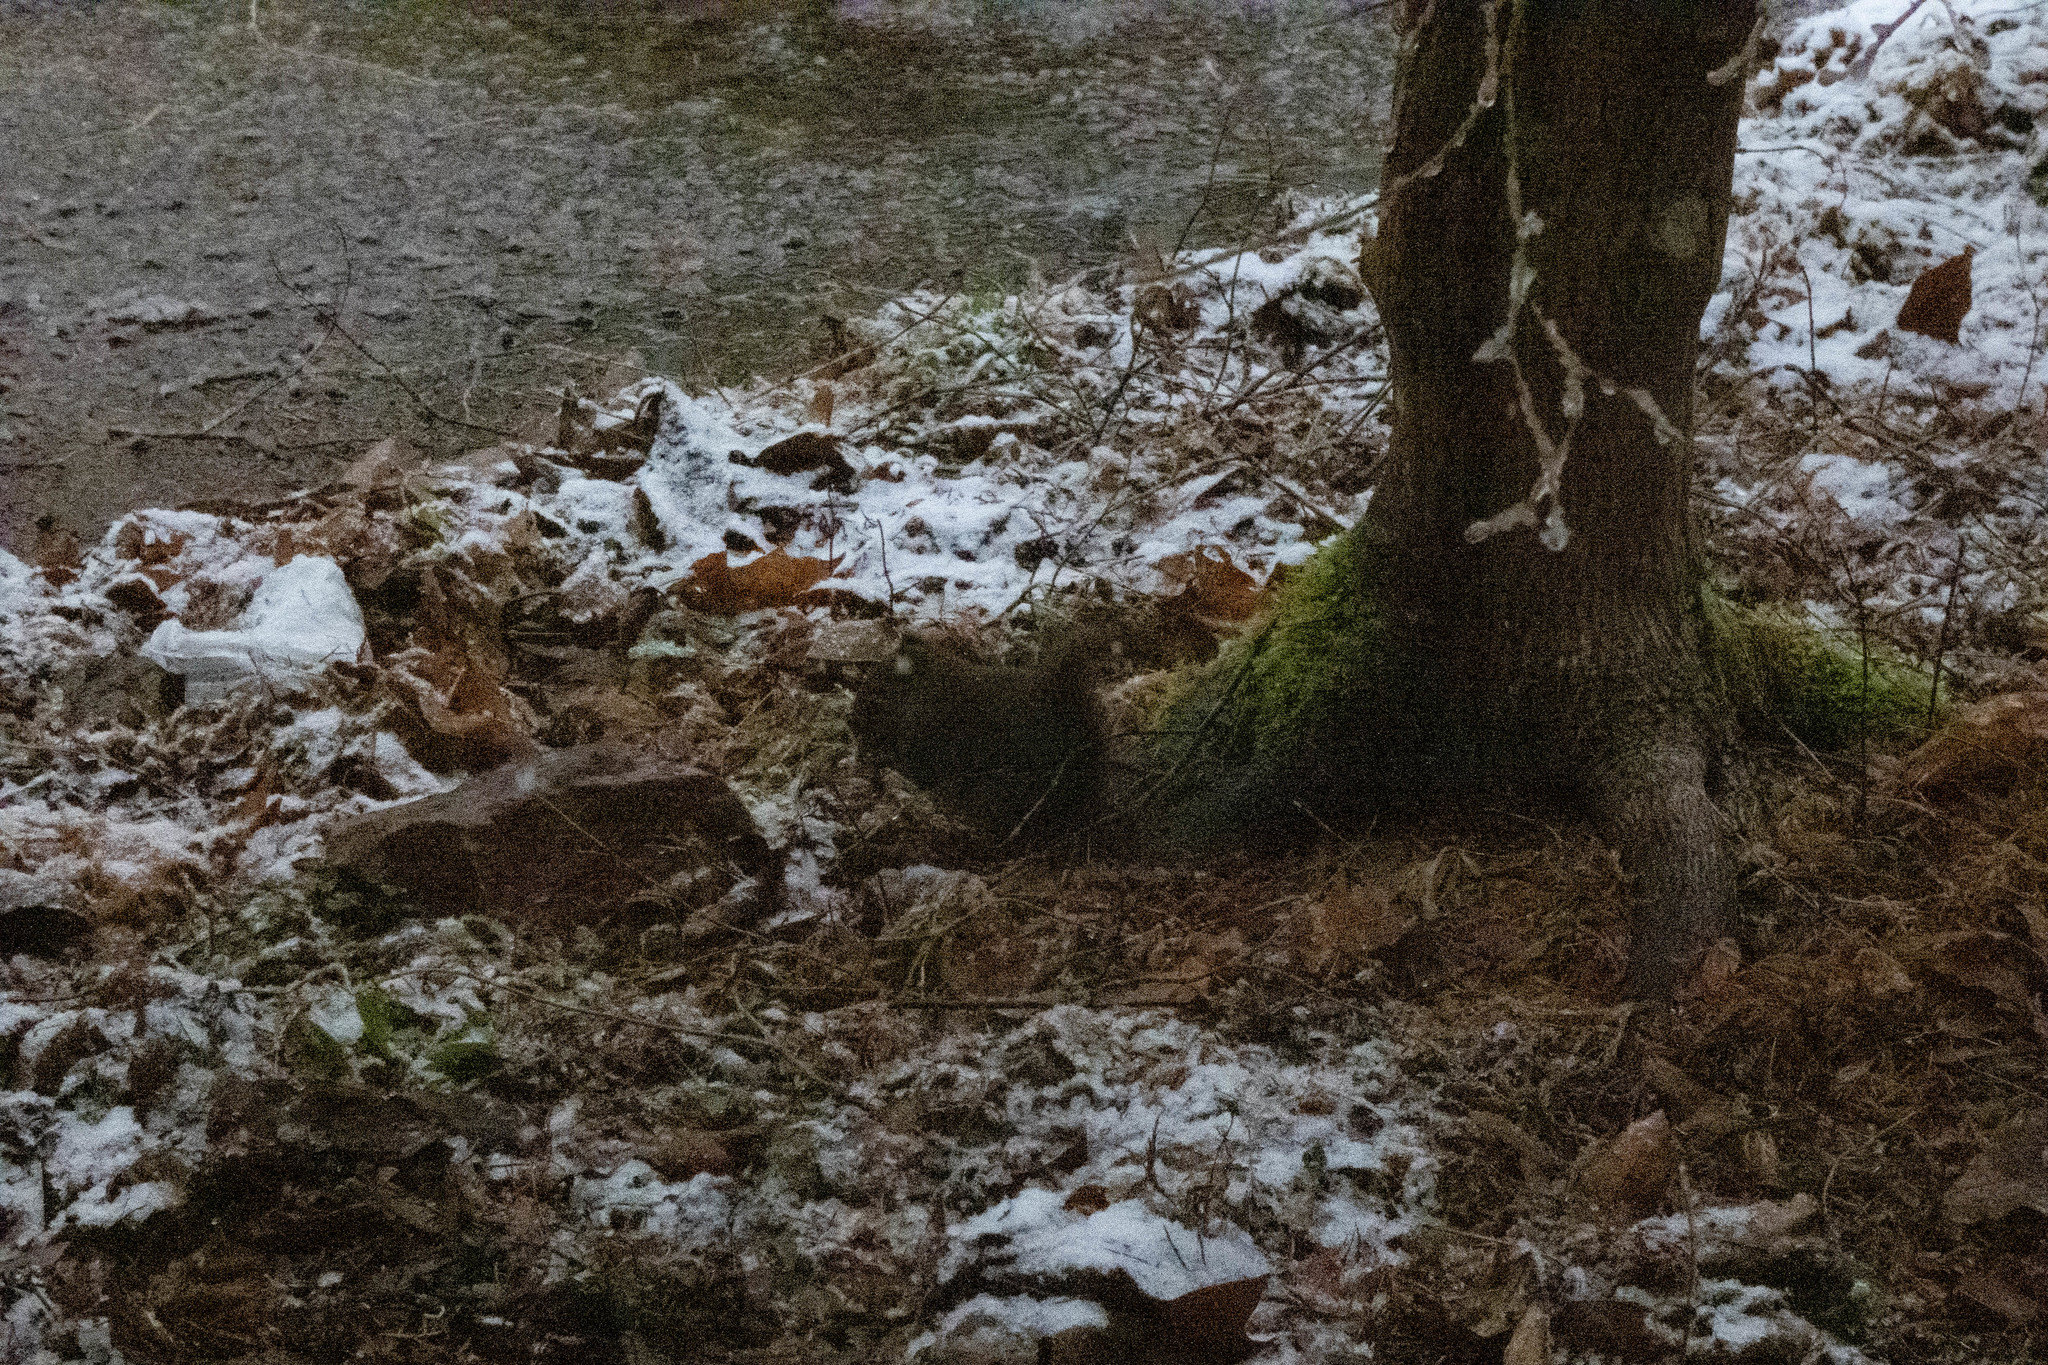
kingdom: Animalia
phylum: Chordata
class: Mammalia
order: Rodentia
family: Sciuridae
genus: Tamiasciurus
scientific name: Tamiasciurus douglasii
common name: Douglas's squirrel
